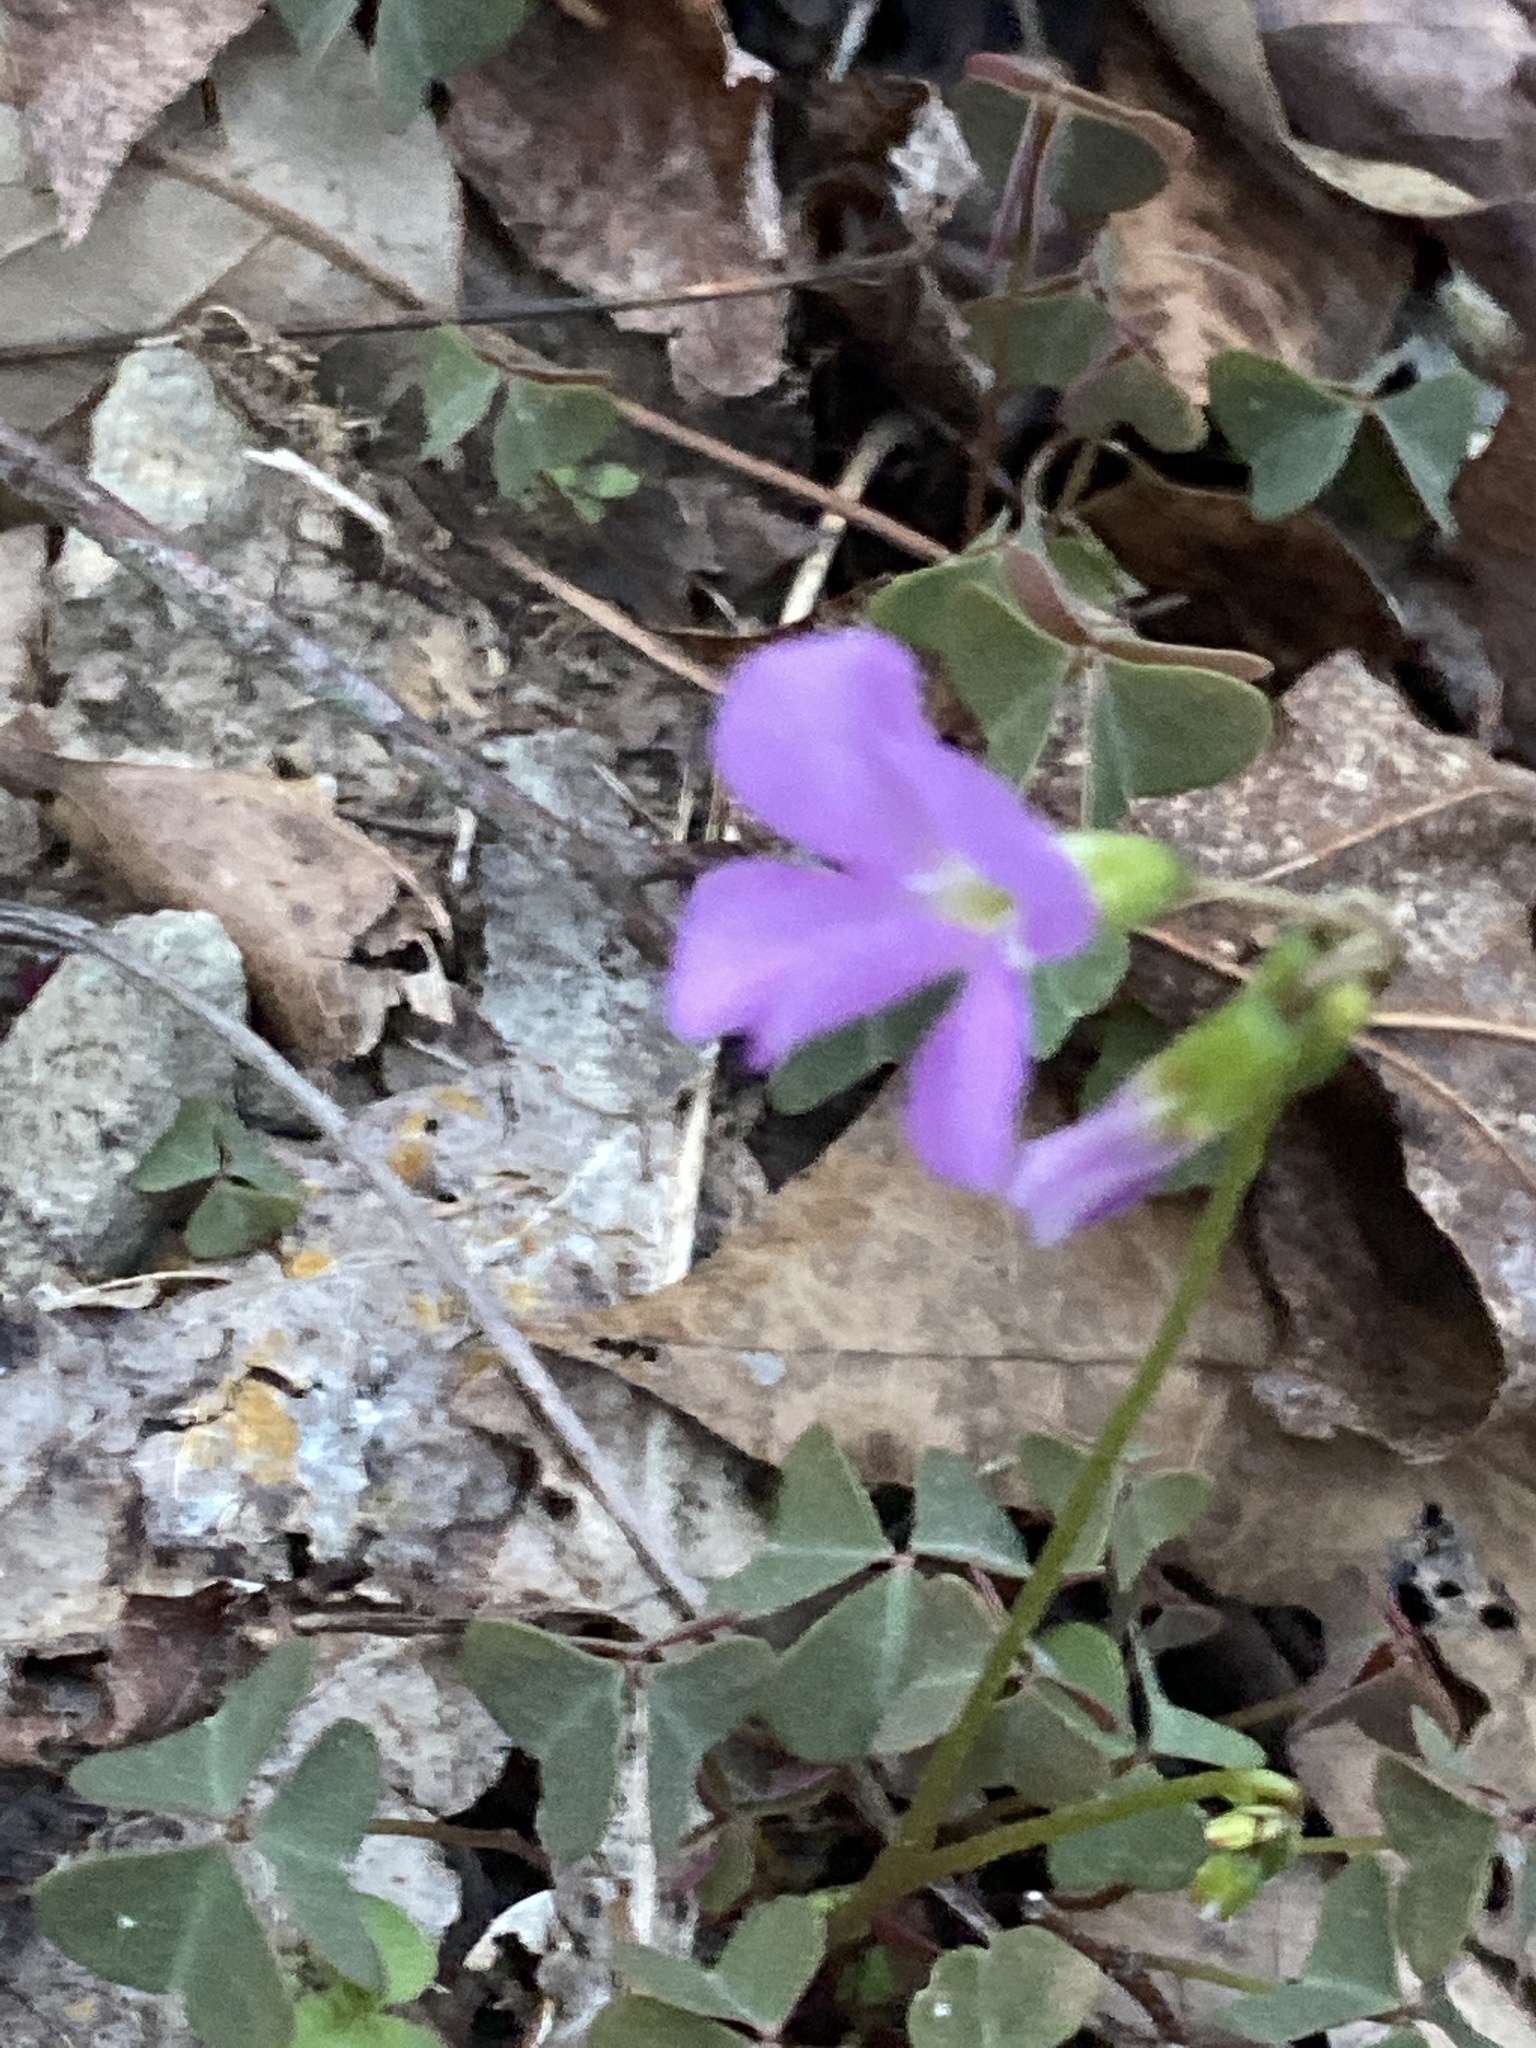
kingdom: Plantae
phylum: Tracheophyta
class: Magnoliopsida
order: Oxalidales
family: Oxalidaceae
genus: Oxalis
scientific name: Oxalis violacea
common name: Violet wood-sorrel
